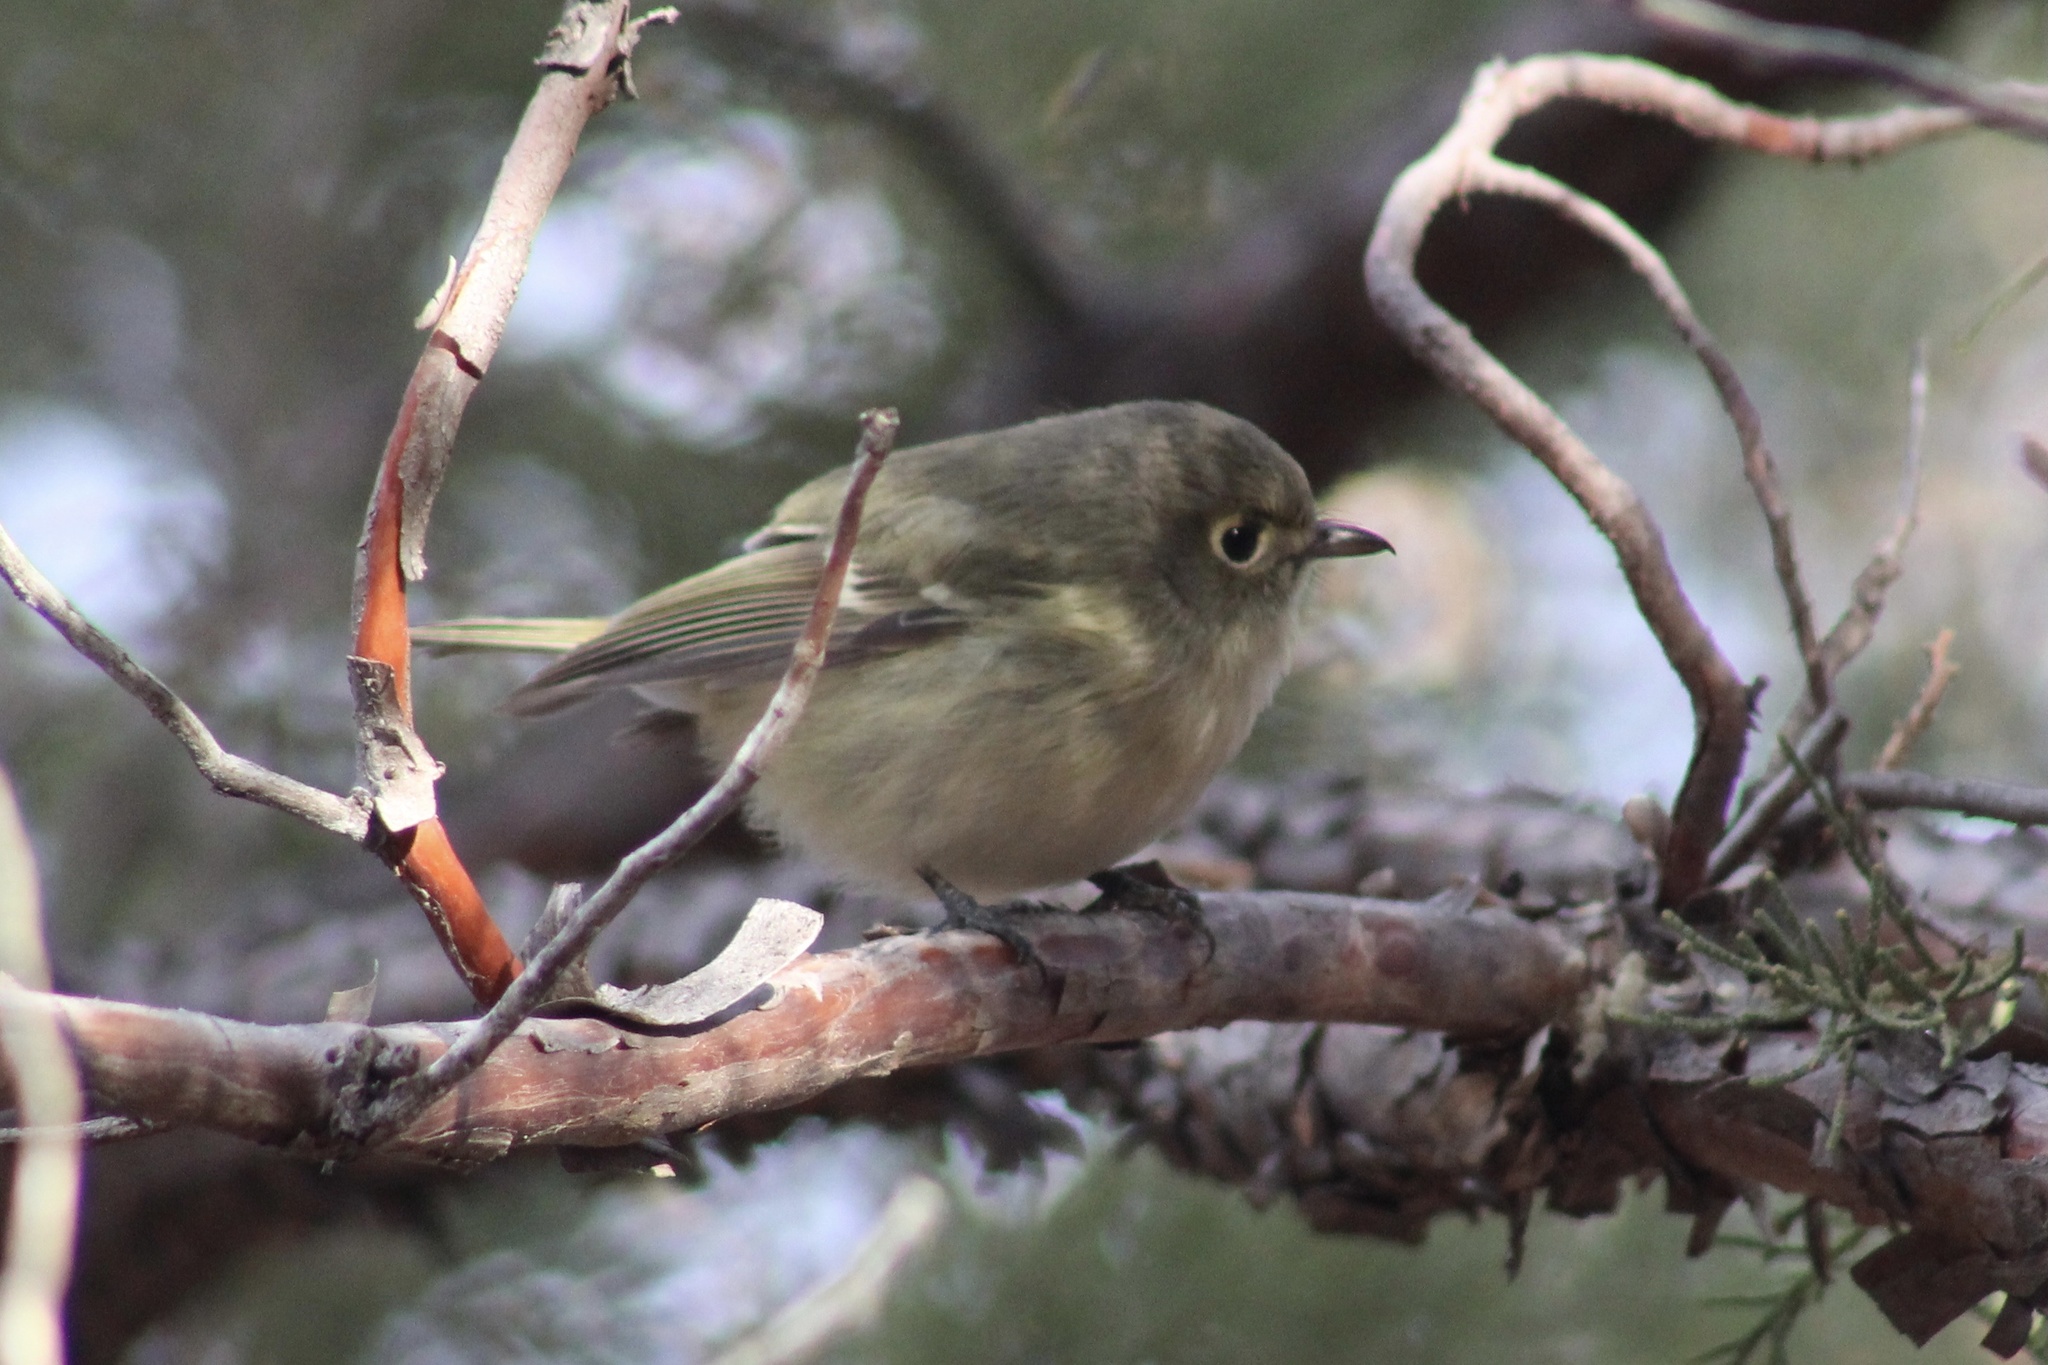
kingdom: Animalia
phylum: Chordata
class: Aves
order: Passeriformes
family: Vireonidae
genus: Vireo
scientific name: Vireo huttoni
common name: Hutton's vireo
